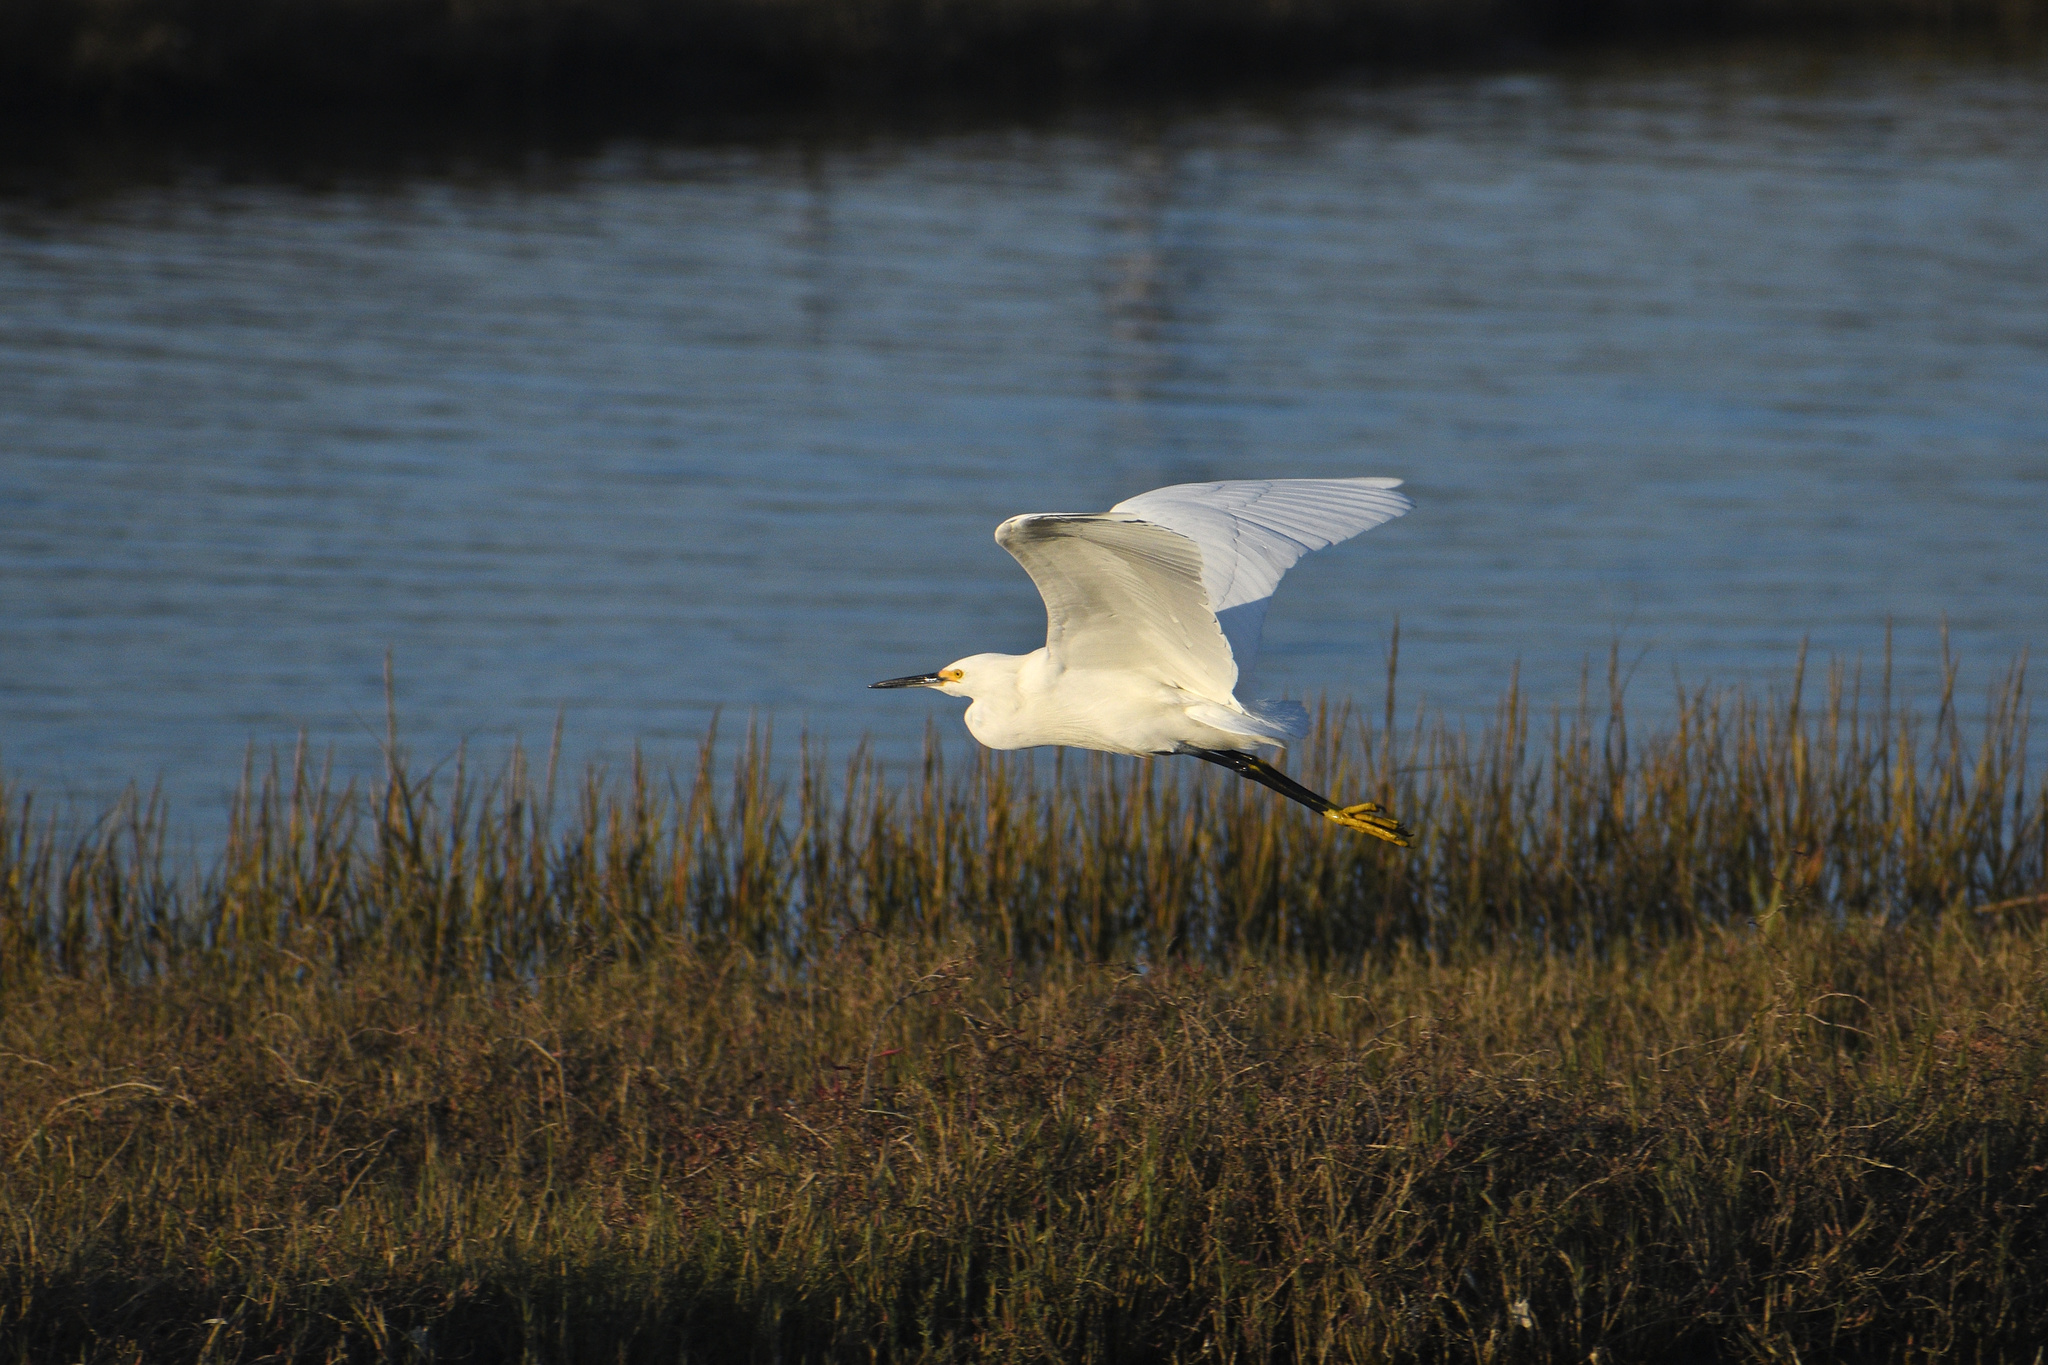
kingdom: Animalia
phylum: Chordata
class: Aves
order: Pelecaniformes
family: Ardeidae
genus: Egretta
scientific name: Egretta thula
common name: Snowy egret
